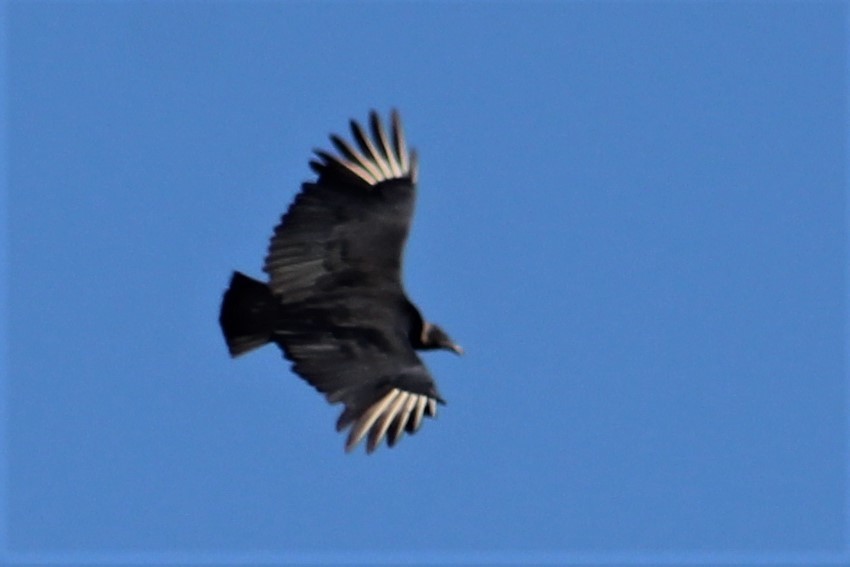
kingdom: Animalia
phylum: Chordata
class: Aves
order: Accipitriformes
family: Cathartidae
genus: Coragyps
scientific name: Coragyps atratus
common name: Black vulture
